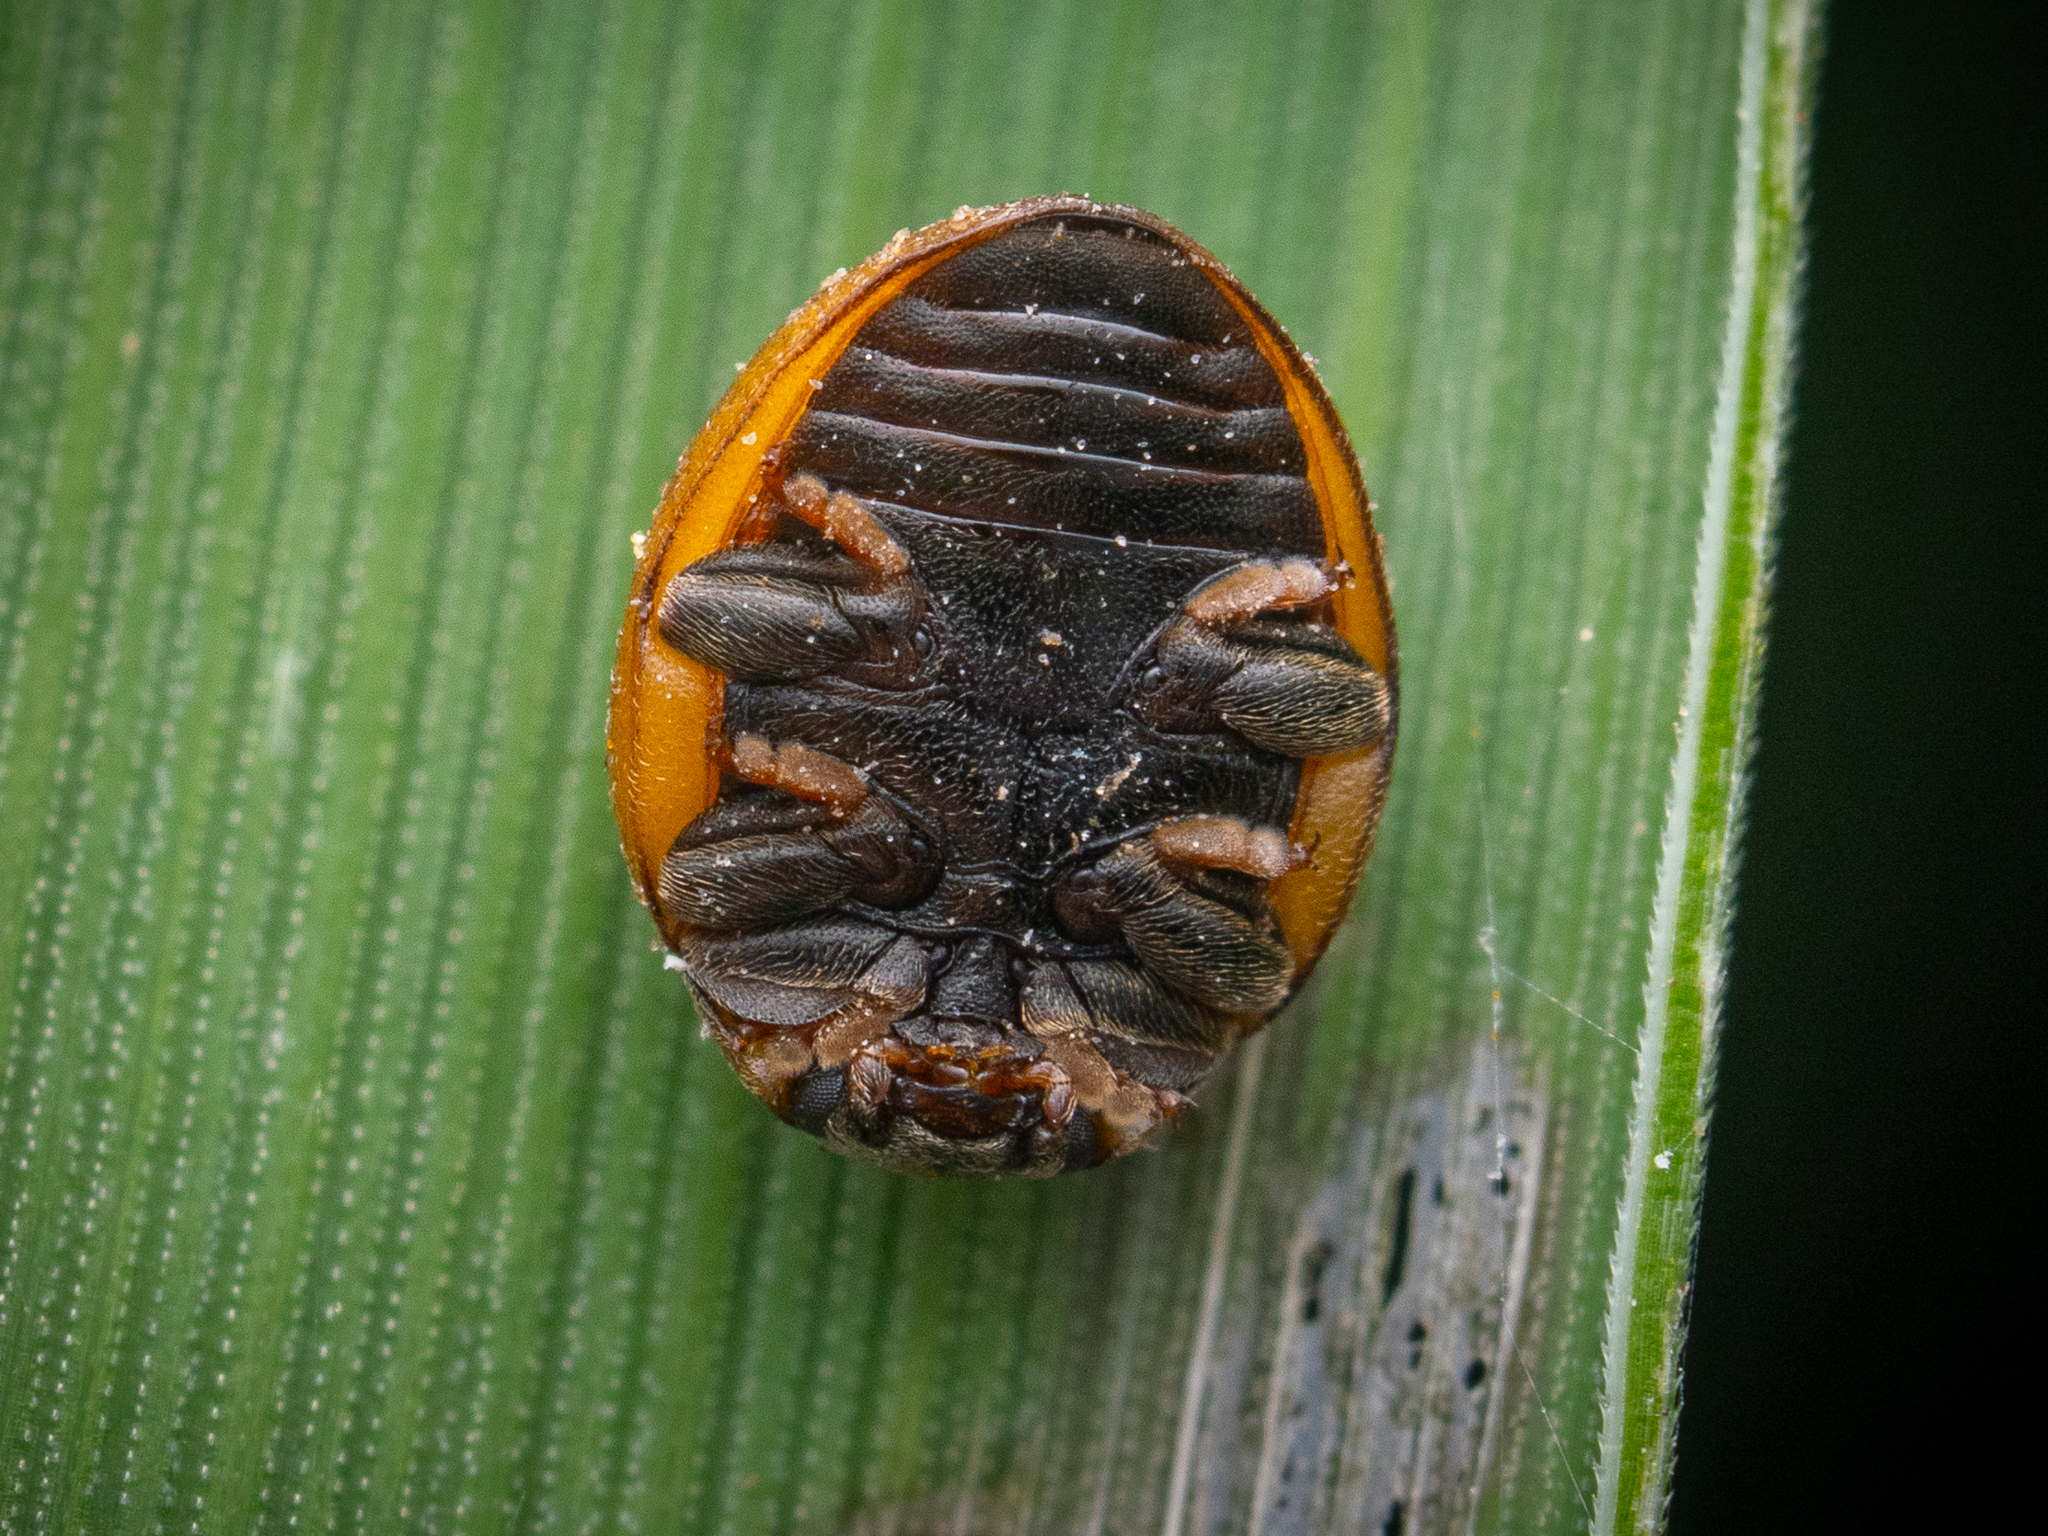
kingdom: Animalia
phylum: Arthropoda
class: Insecta
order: Coleoptera
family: Coccinellidae
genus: Cynegetis
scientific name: Cynegetis impunctata
